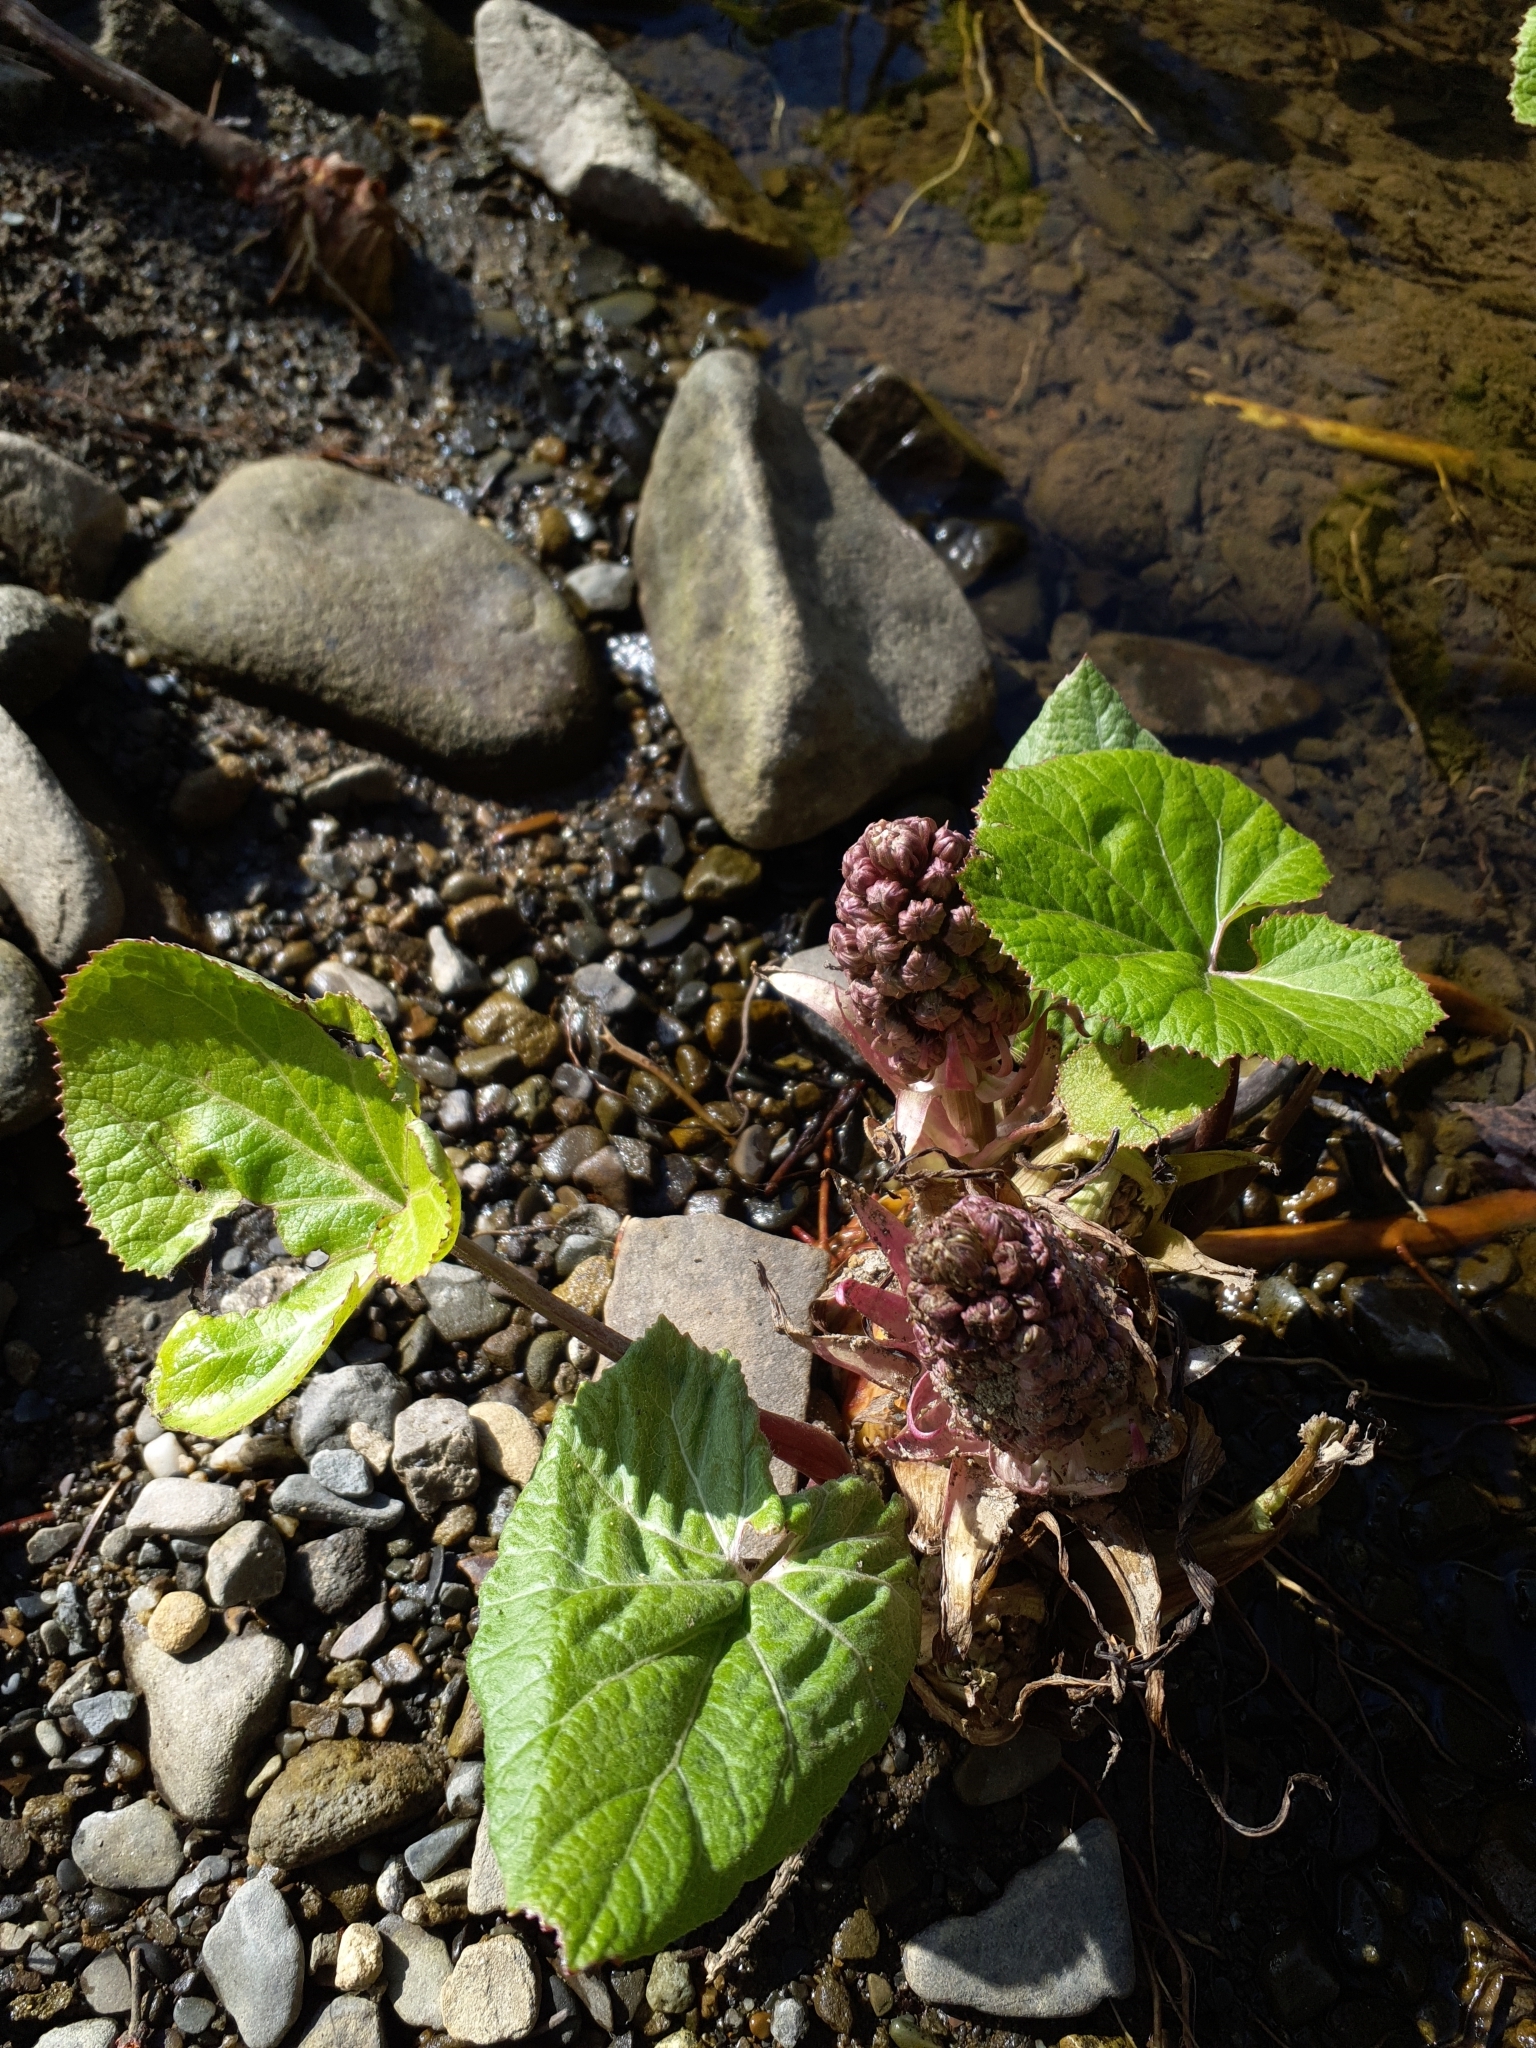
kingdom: Plantae
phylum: Tracheophyta
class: Magnoliopsida
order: Asterales
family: Asteraceae
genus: Petasites
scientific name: Petasites hybridus
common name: Butterbur
